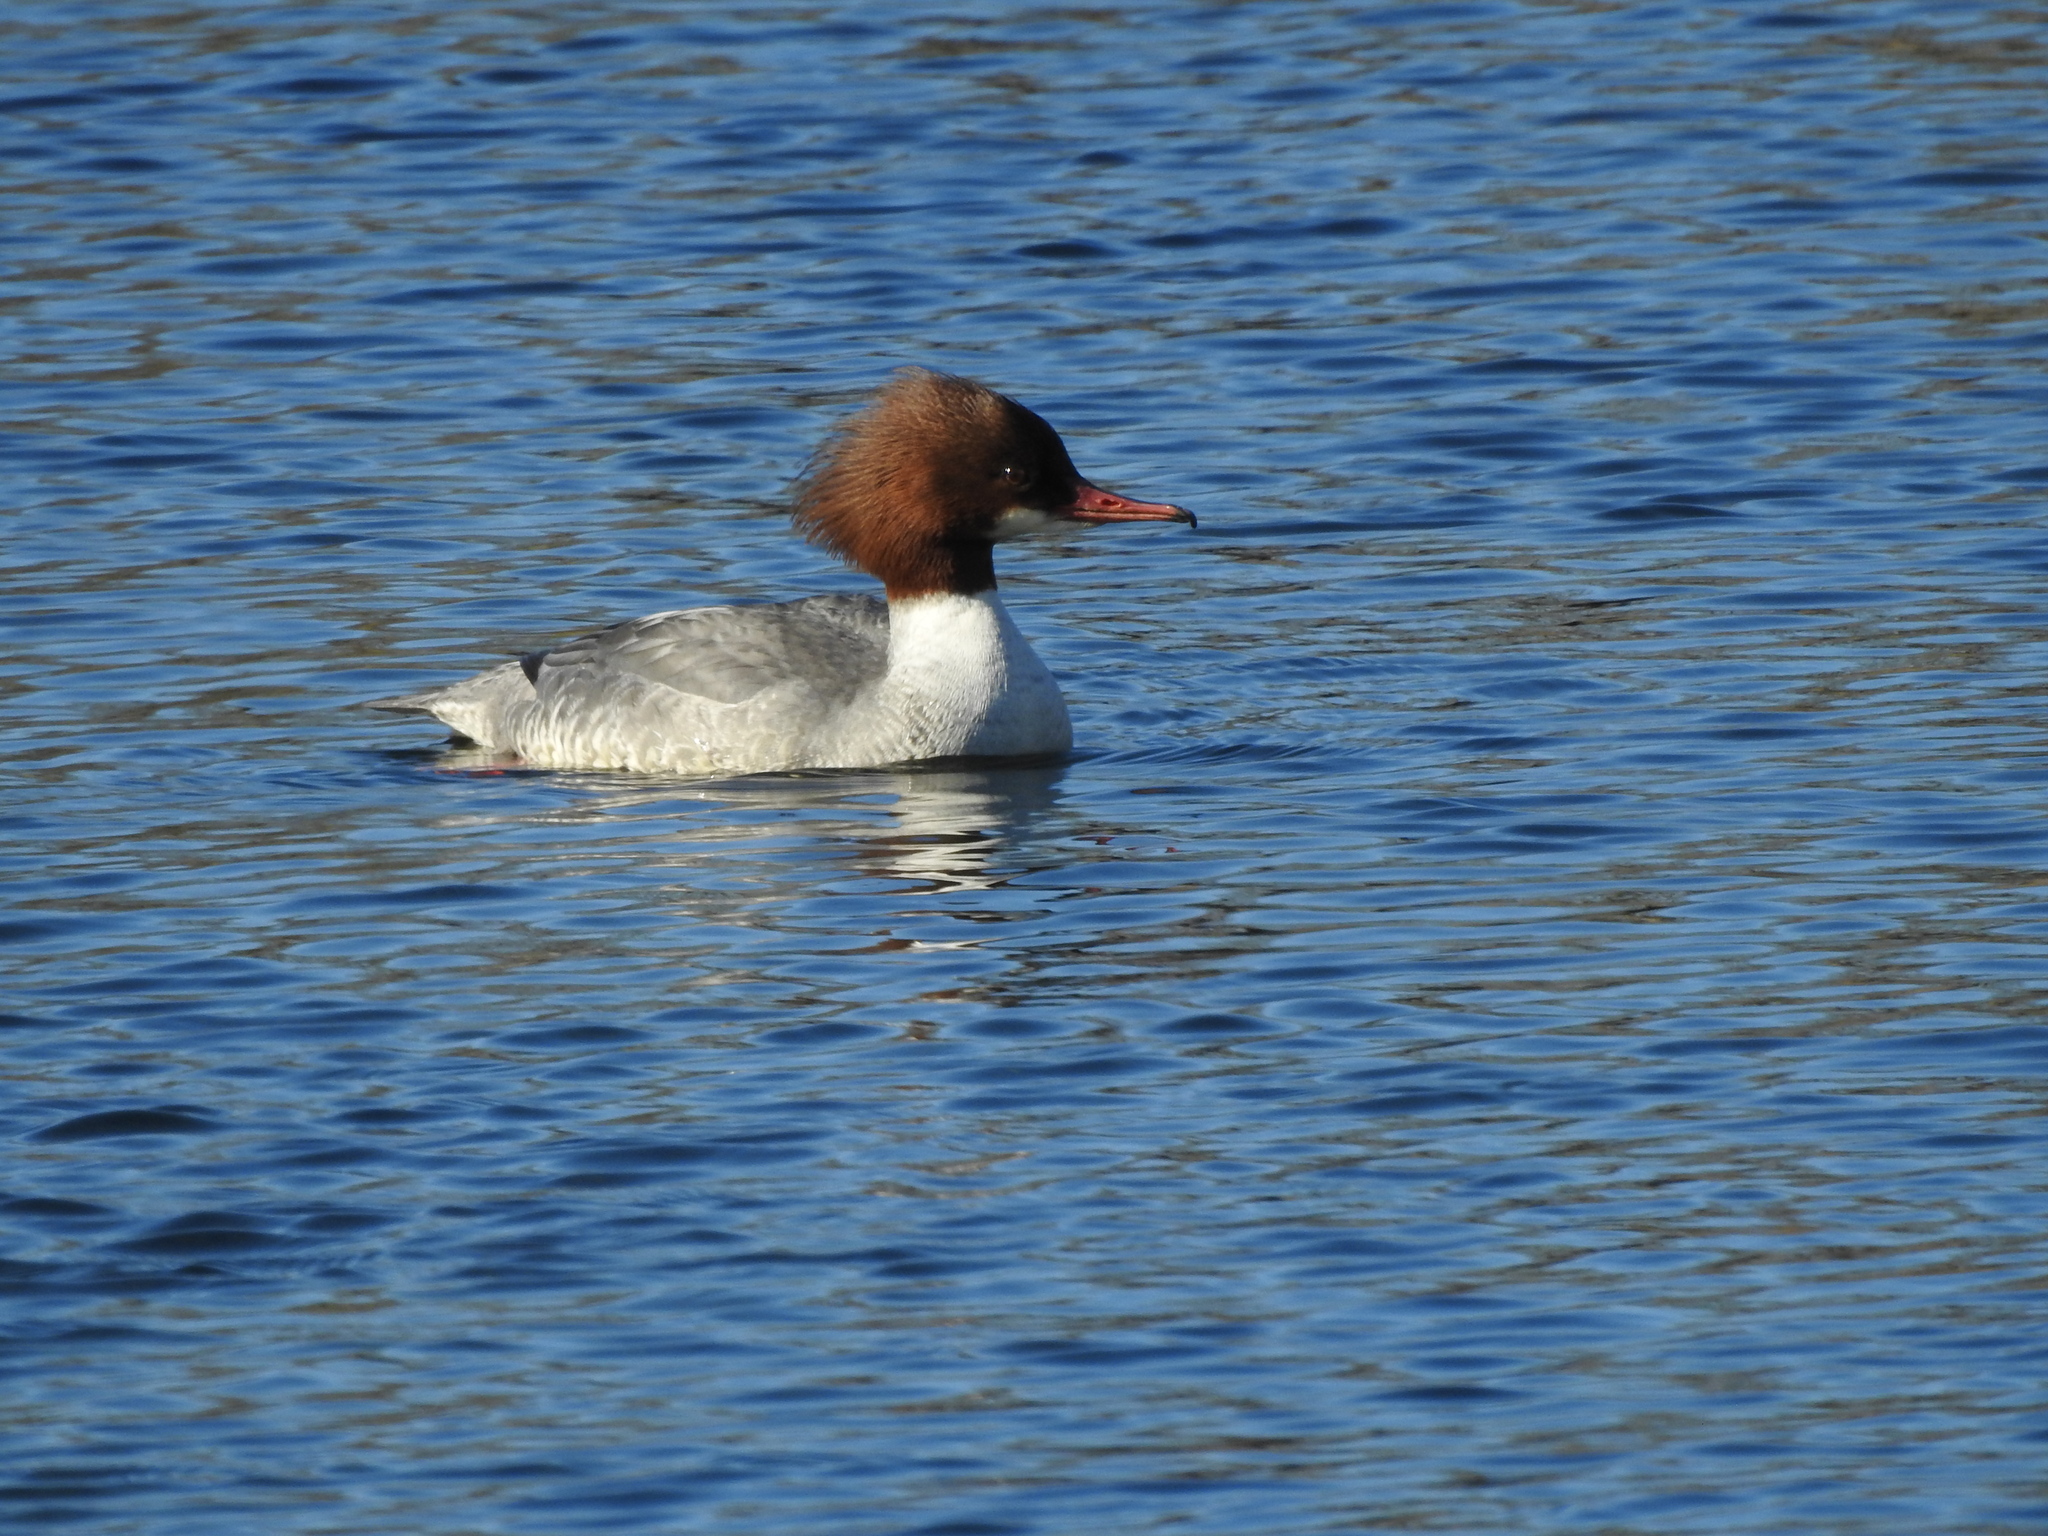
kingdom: Animalia
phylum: Chordata
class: Aves
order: Anseriformes
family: Anatidae
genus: Mergus
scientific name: Mergus merganser
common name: Common merganser
